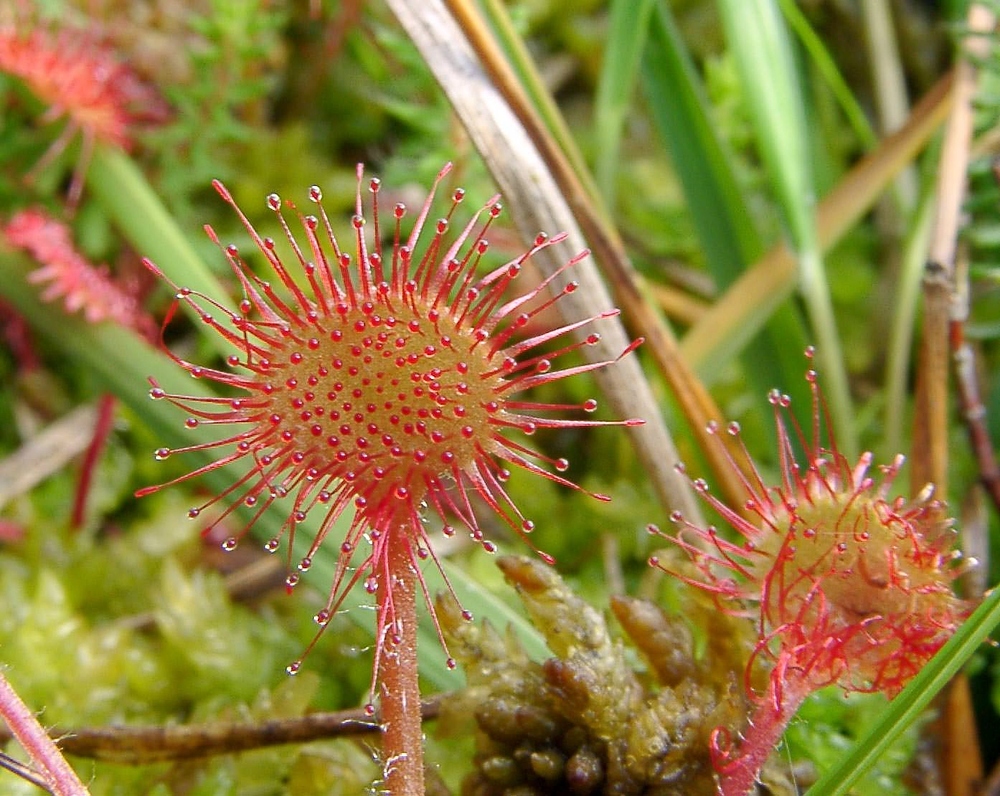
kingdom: Plantae
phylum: Tracheophyta
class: Magnoliopsida
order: Caryophyllales
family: Droseraceae
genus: Drosera
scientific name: Drosera rotundifolia
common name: Round-leaved sundew
